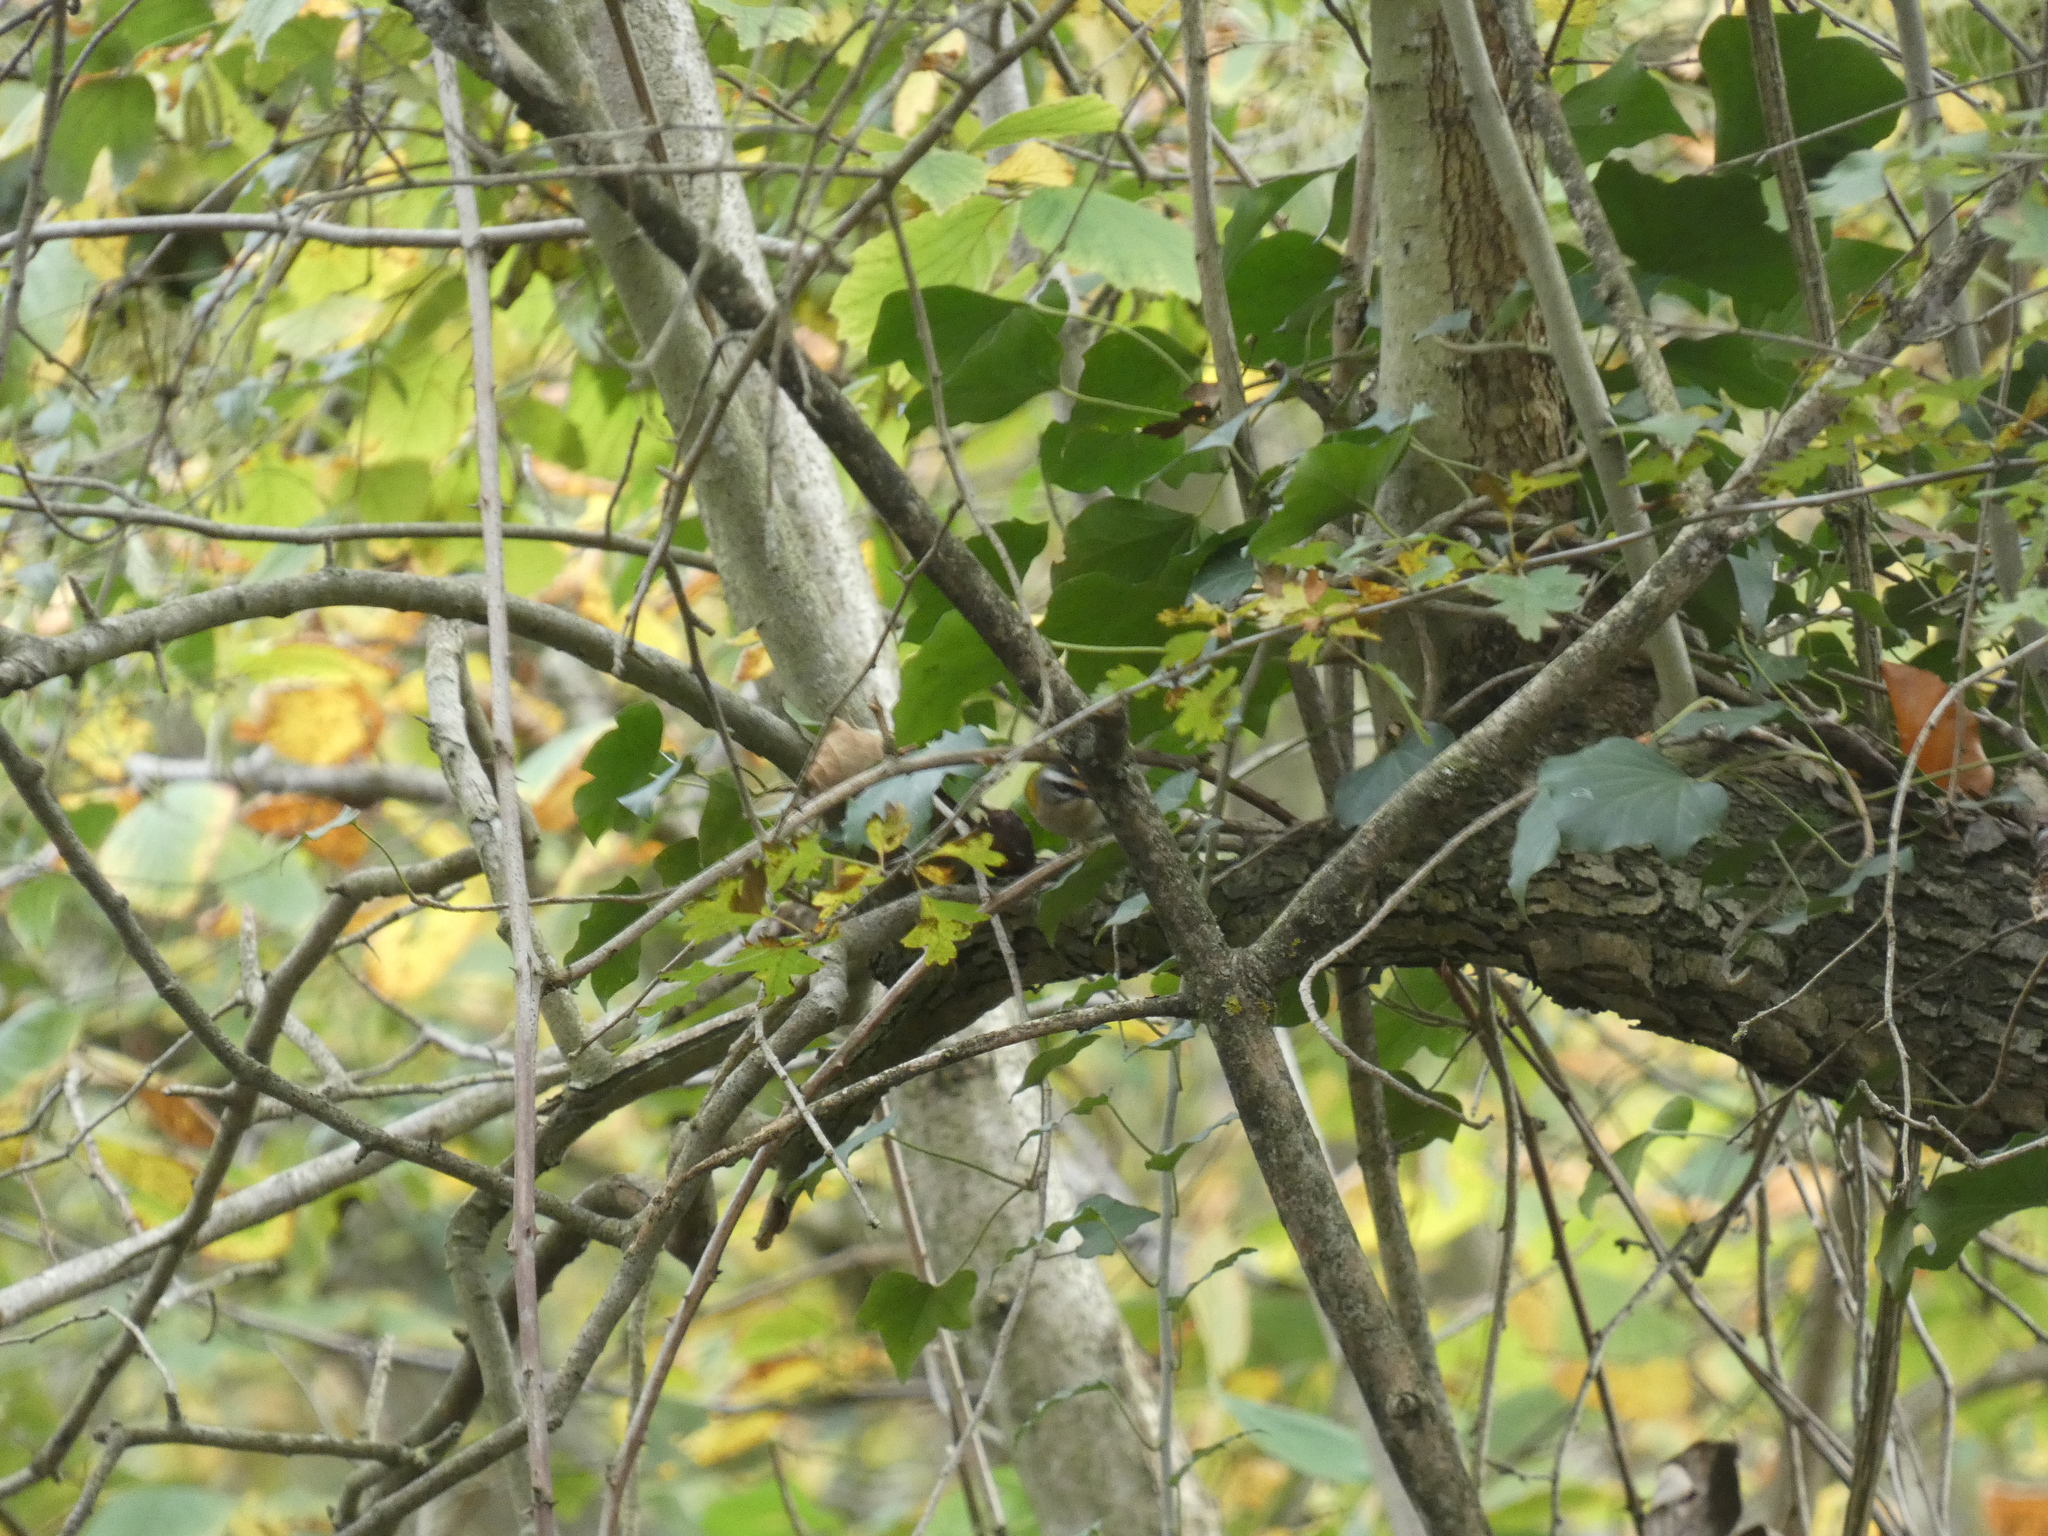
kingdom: Animalia
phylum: Chordata
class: Aves
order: Passeriformes
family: Regulidae
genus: Regulus
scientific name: Regulus ignicapilla
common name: Firecrest
